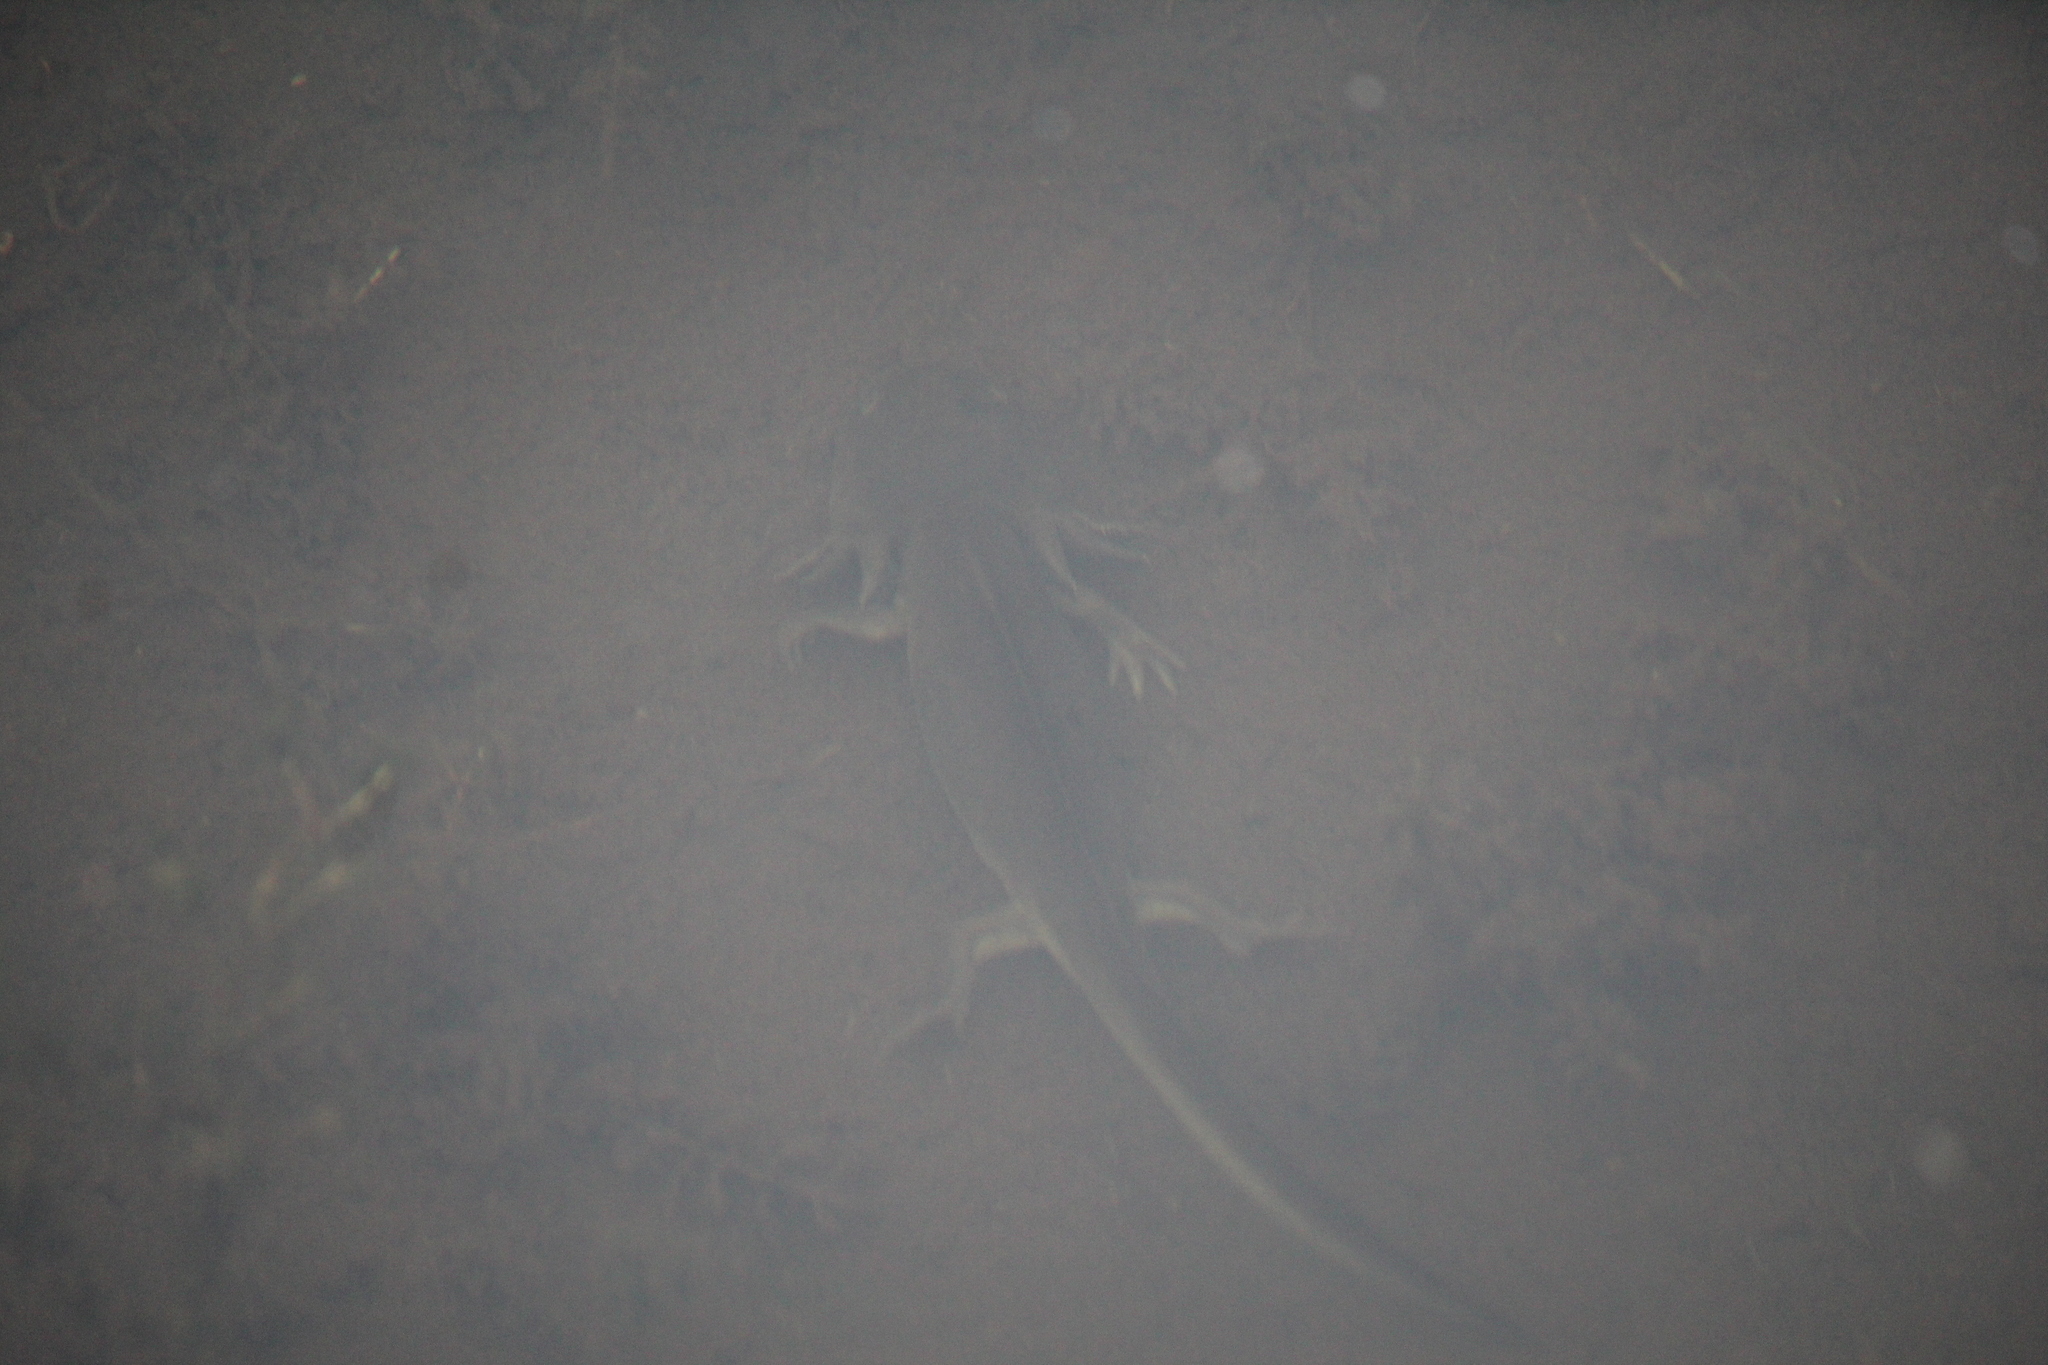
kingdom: Animalia
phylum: Chordata
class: Amphibia
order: Caudata
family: Ambystomatidae
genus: Ambystoma
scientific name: Ambystoma mavortium
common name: Western tiger salamander
